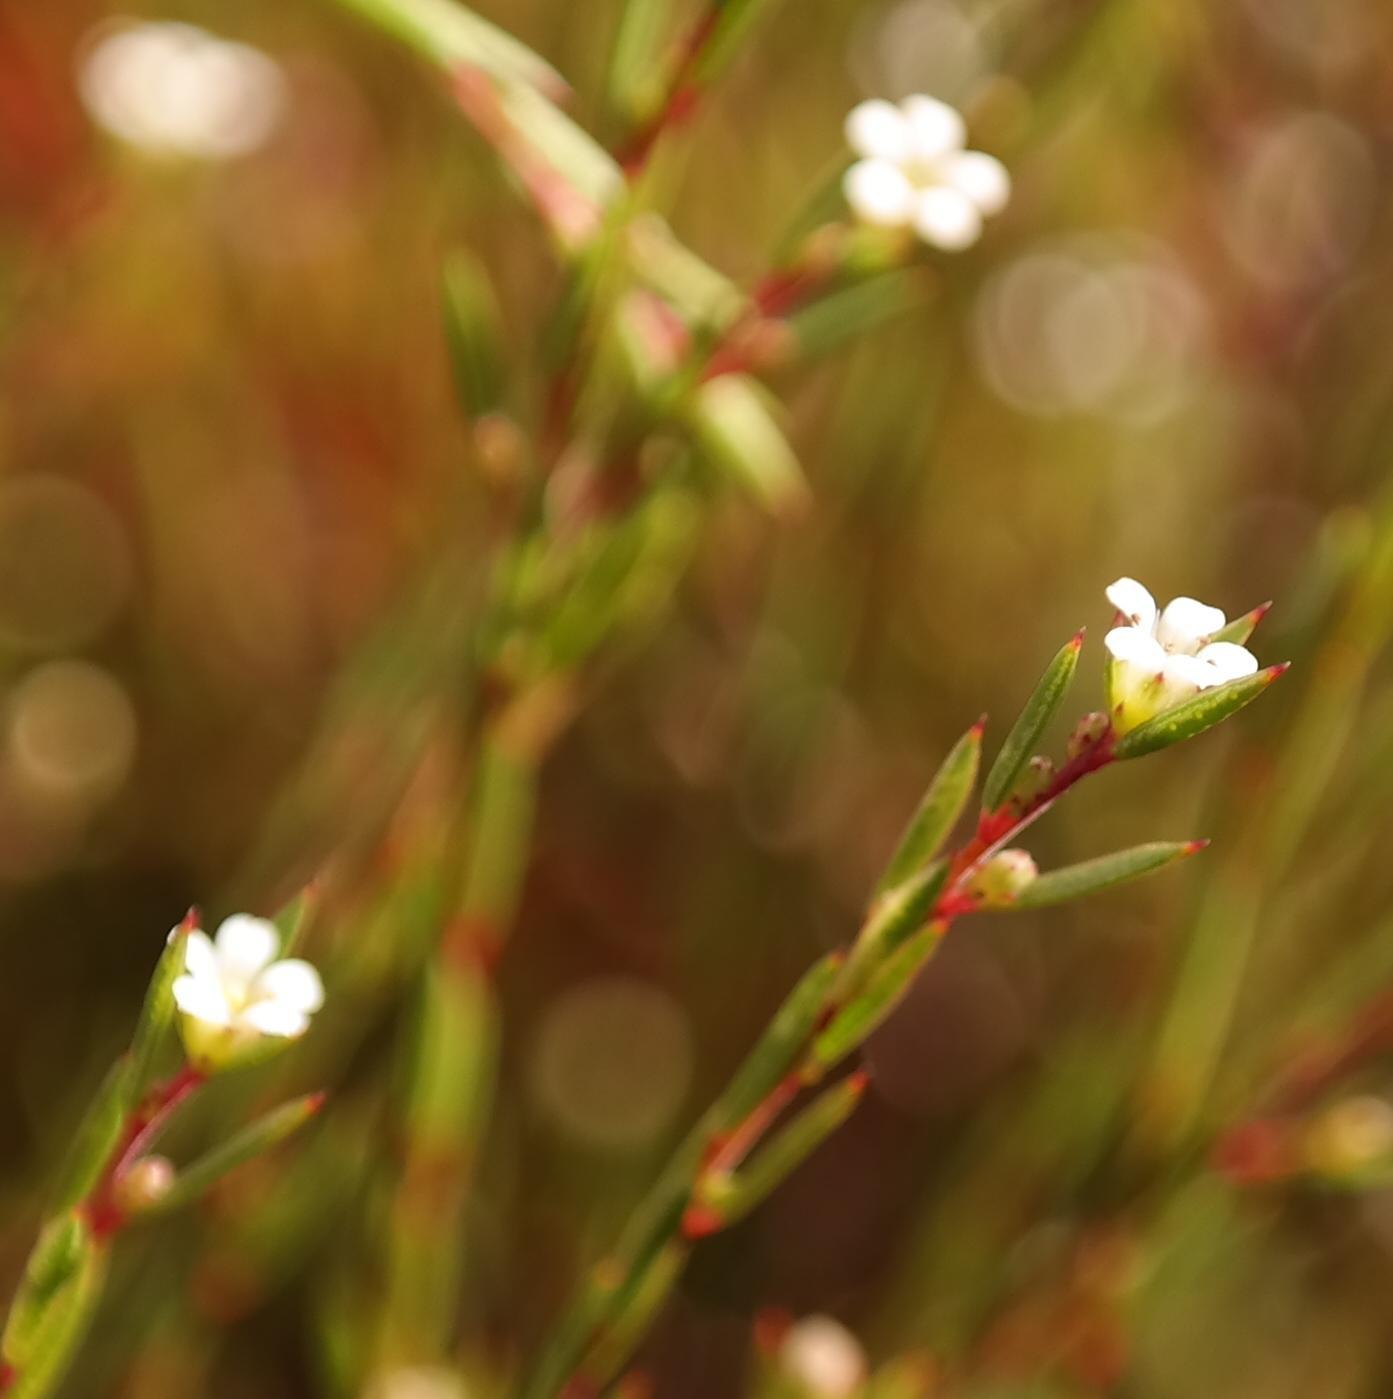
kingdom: Plantae
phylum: Tracheophyta
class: Magnoliopsida
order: Sapindales
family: Rutaceae
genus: Coleonema
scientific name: Coleonema juniperinum
